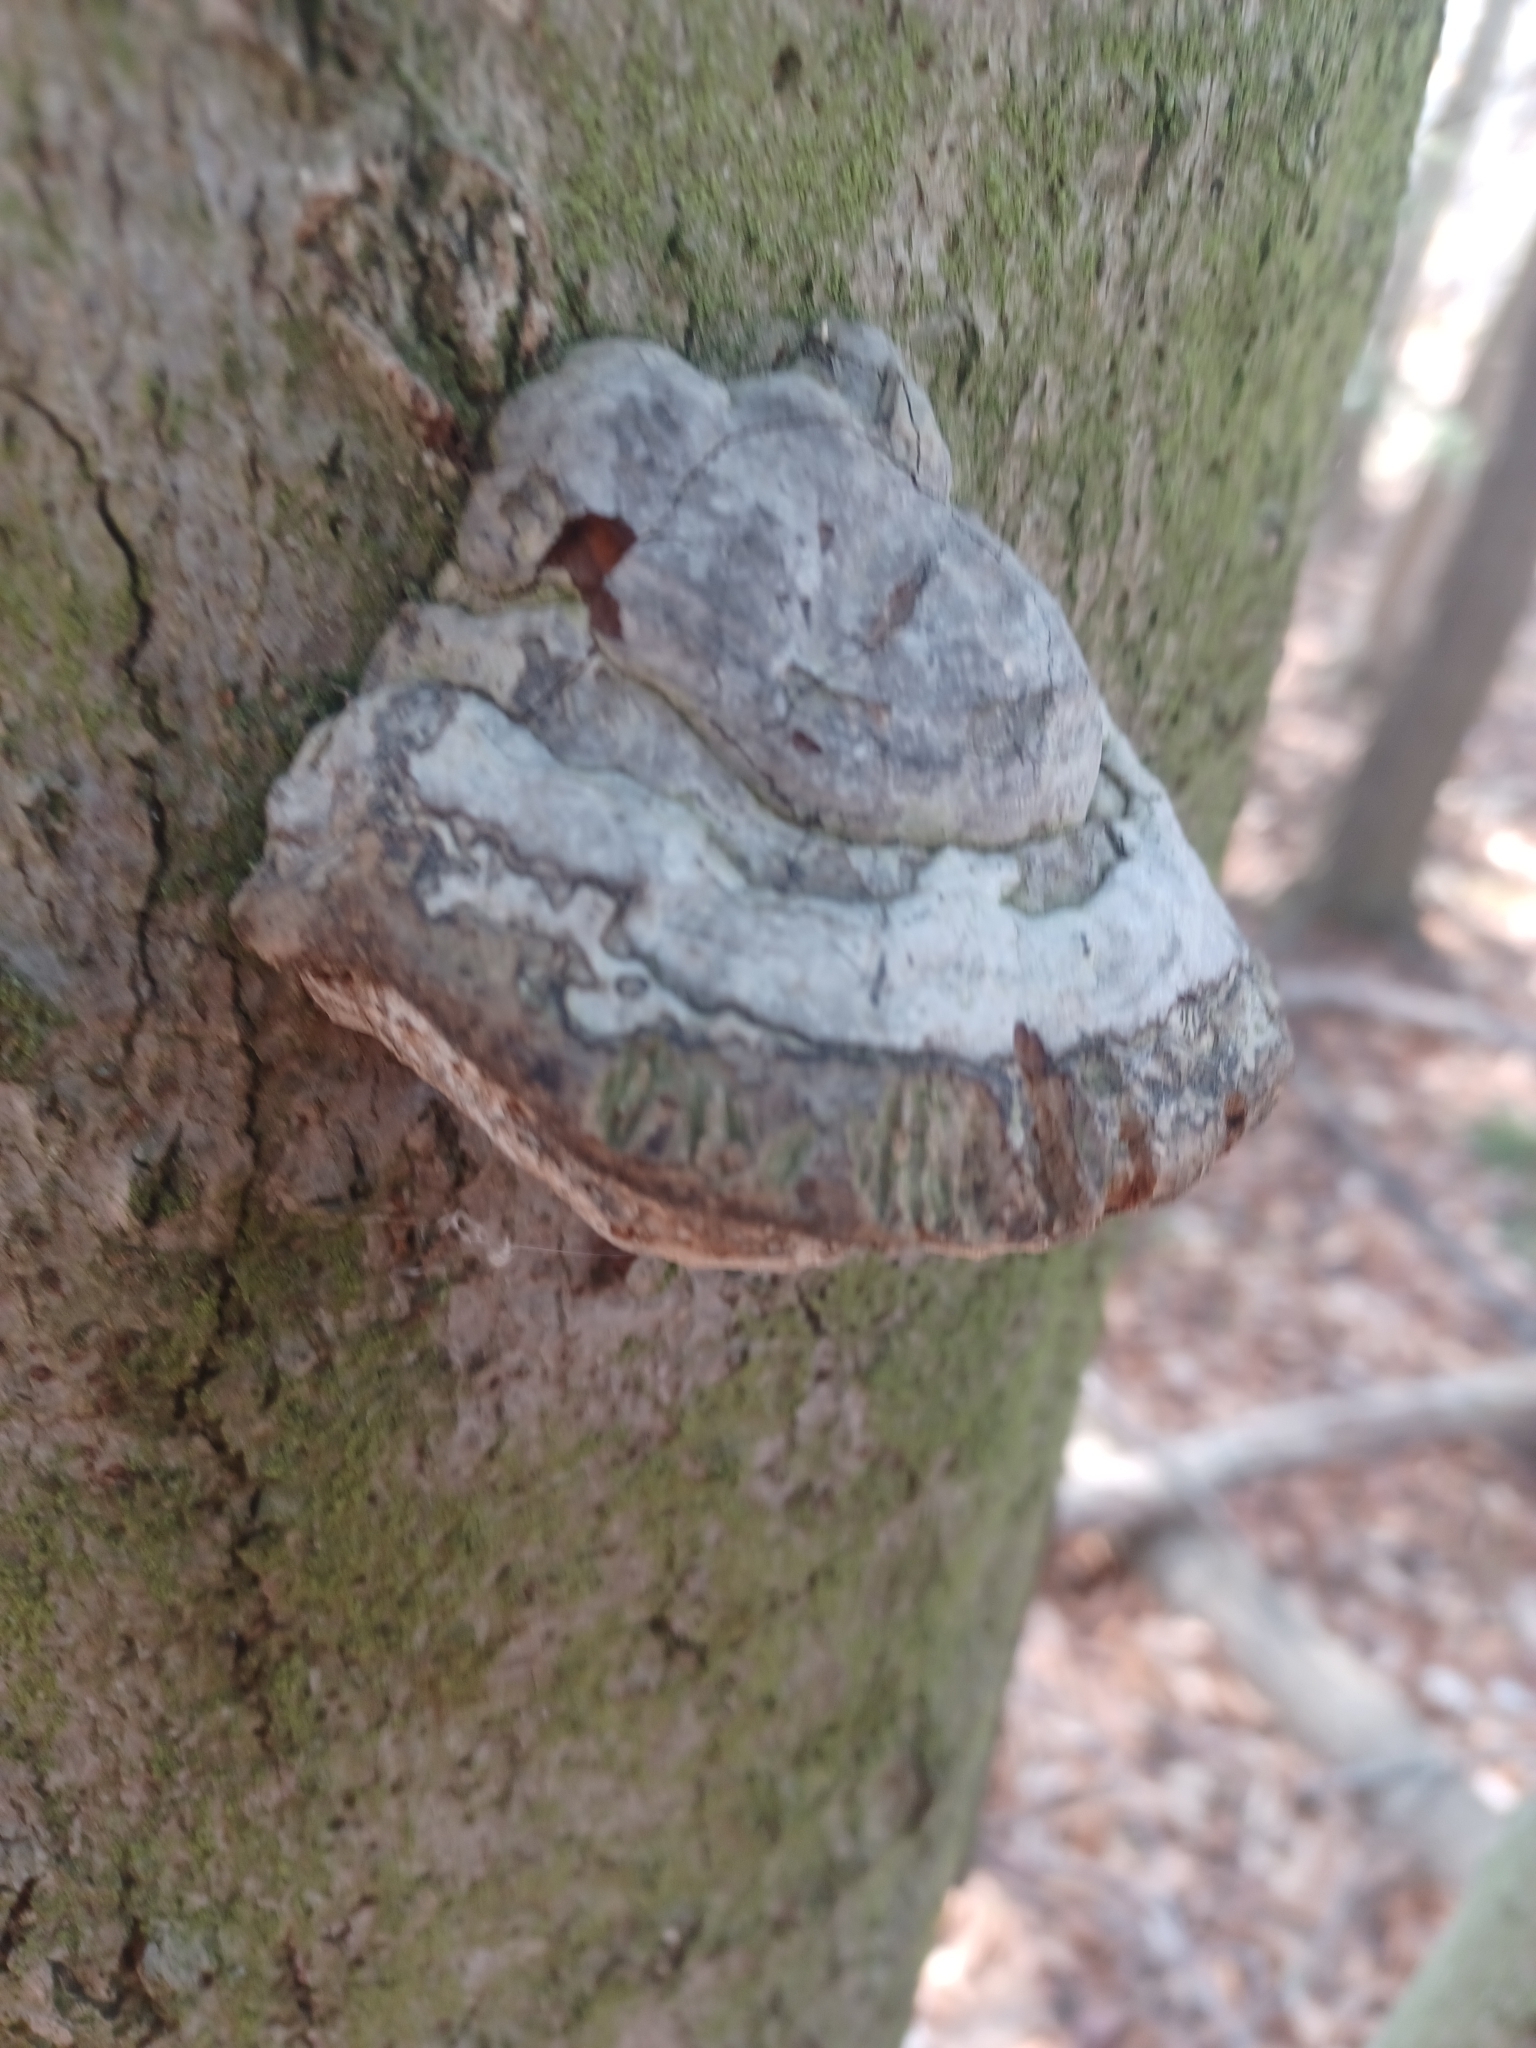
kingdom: Fungi
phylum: Basidiomycota
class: Agaricomycetes
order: Polyporales
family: Polyporaceae
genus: Fomes
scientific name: Fomes fomentarius
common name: Hoof fungus
